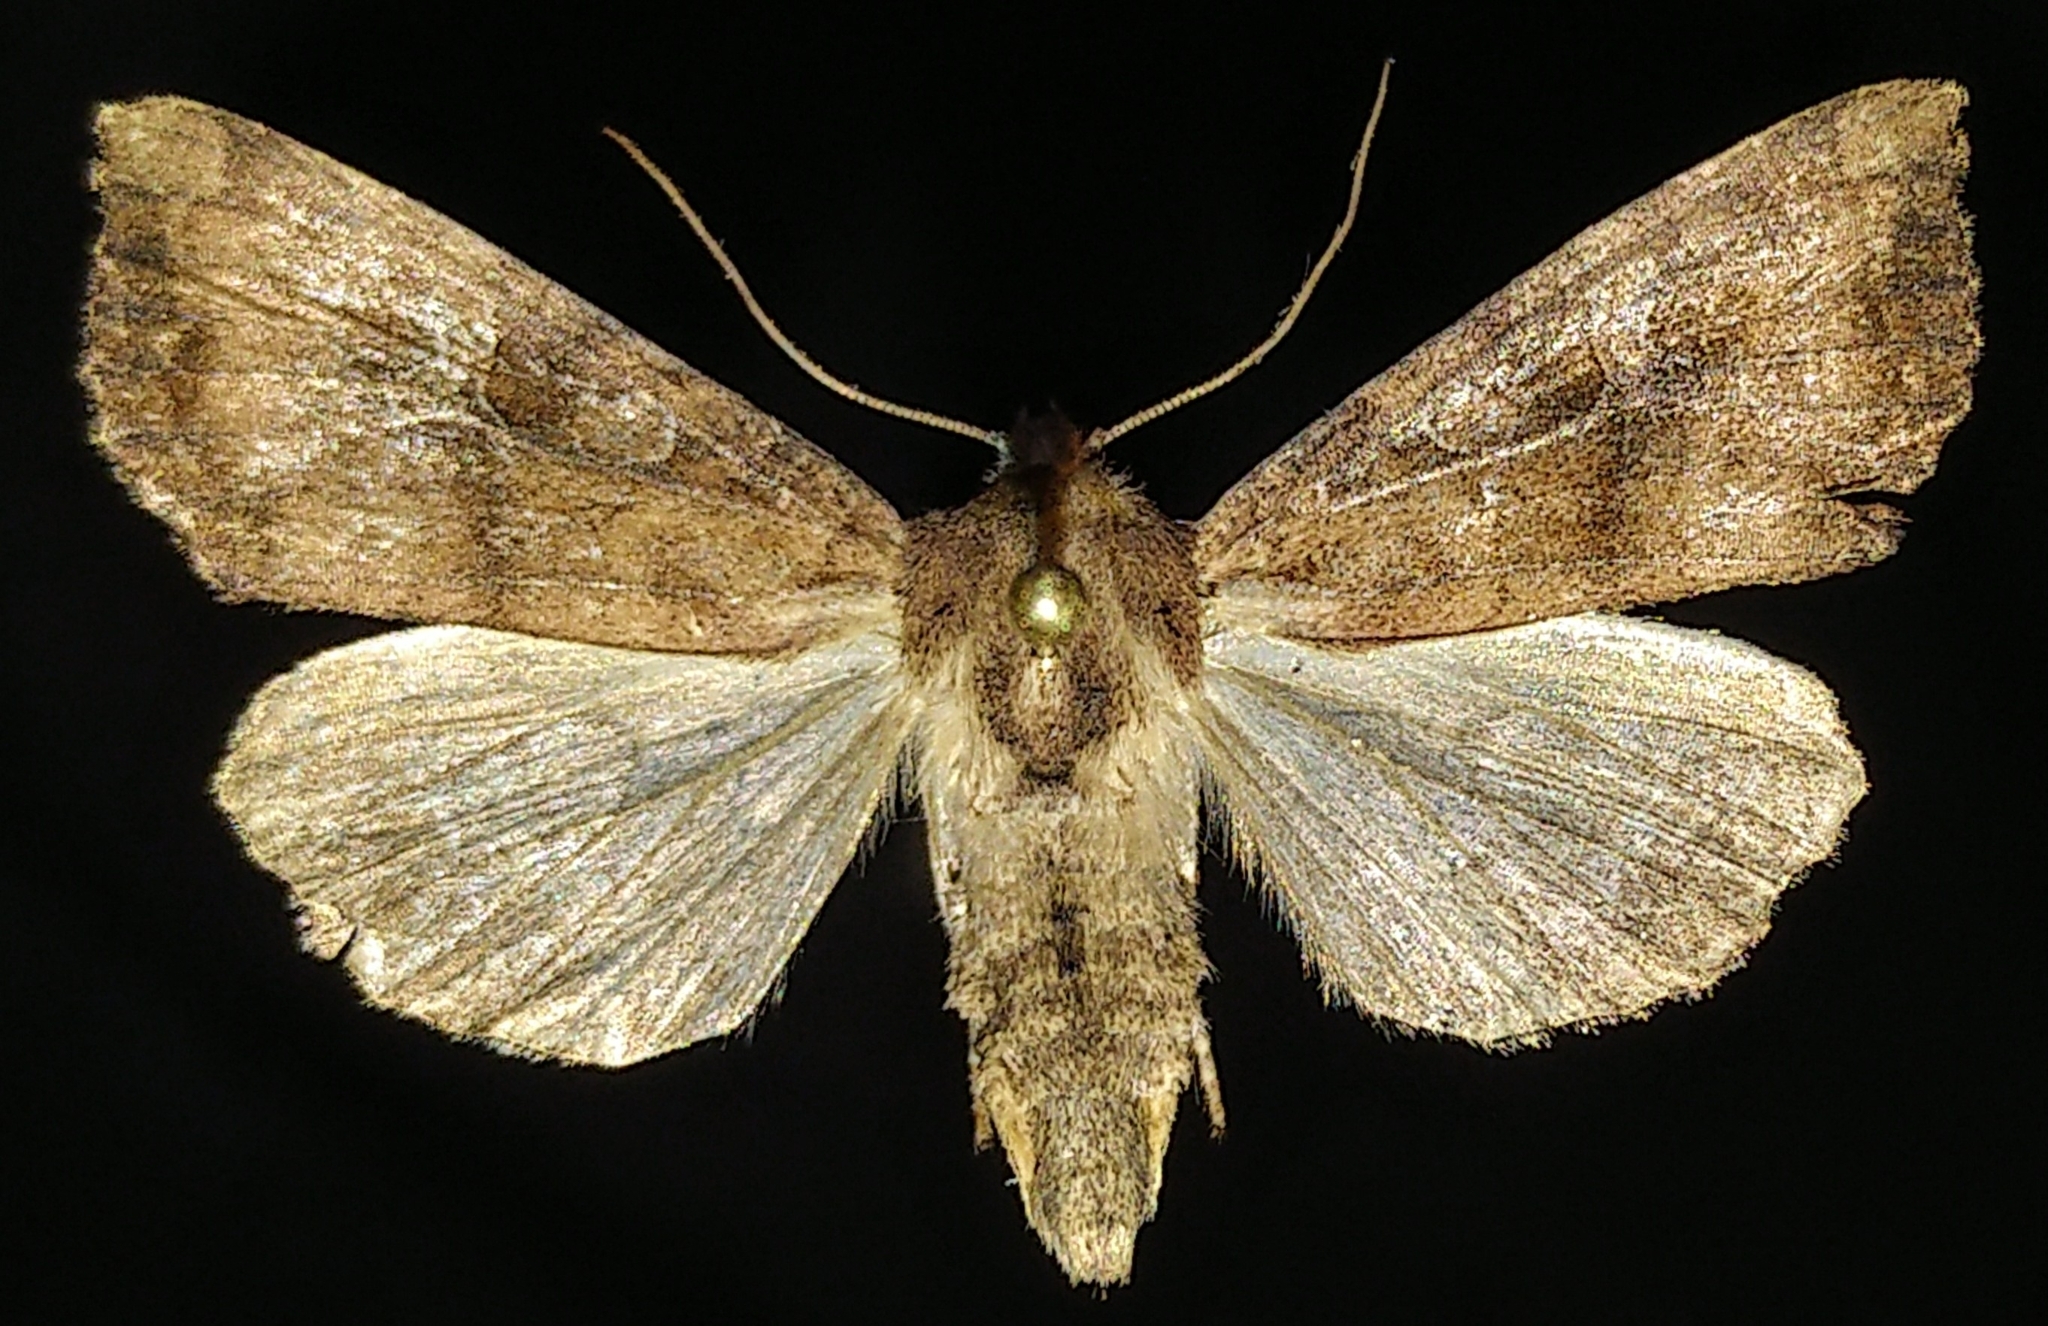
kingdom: Animalia
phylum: Arthropoda
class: Insecta
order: Lepidoptera
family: Noctuidae
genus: Loscopia
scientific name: Loscopia velata
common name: Veiled ear moth
